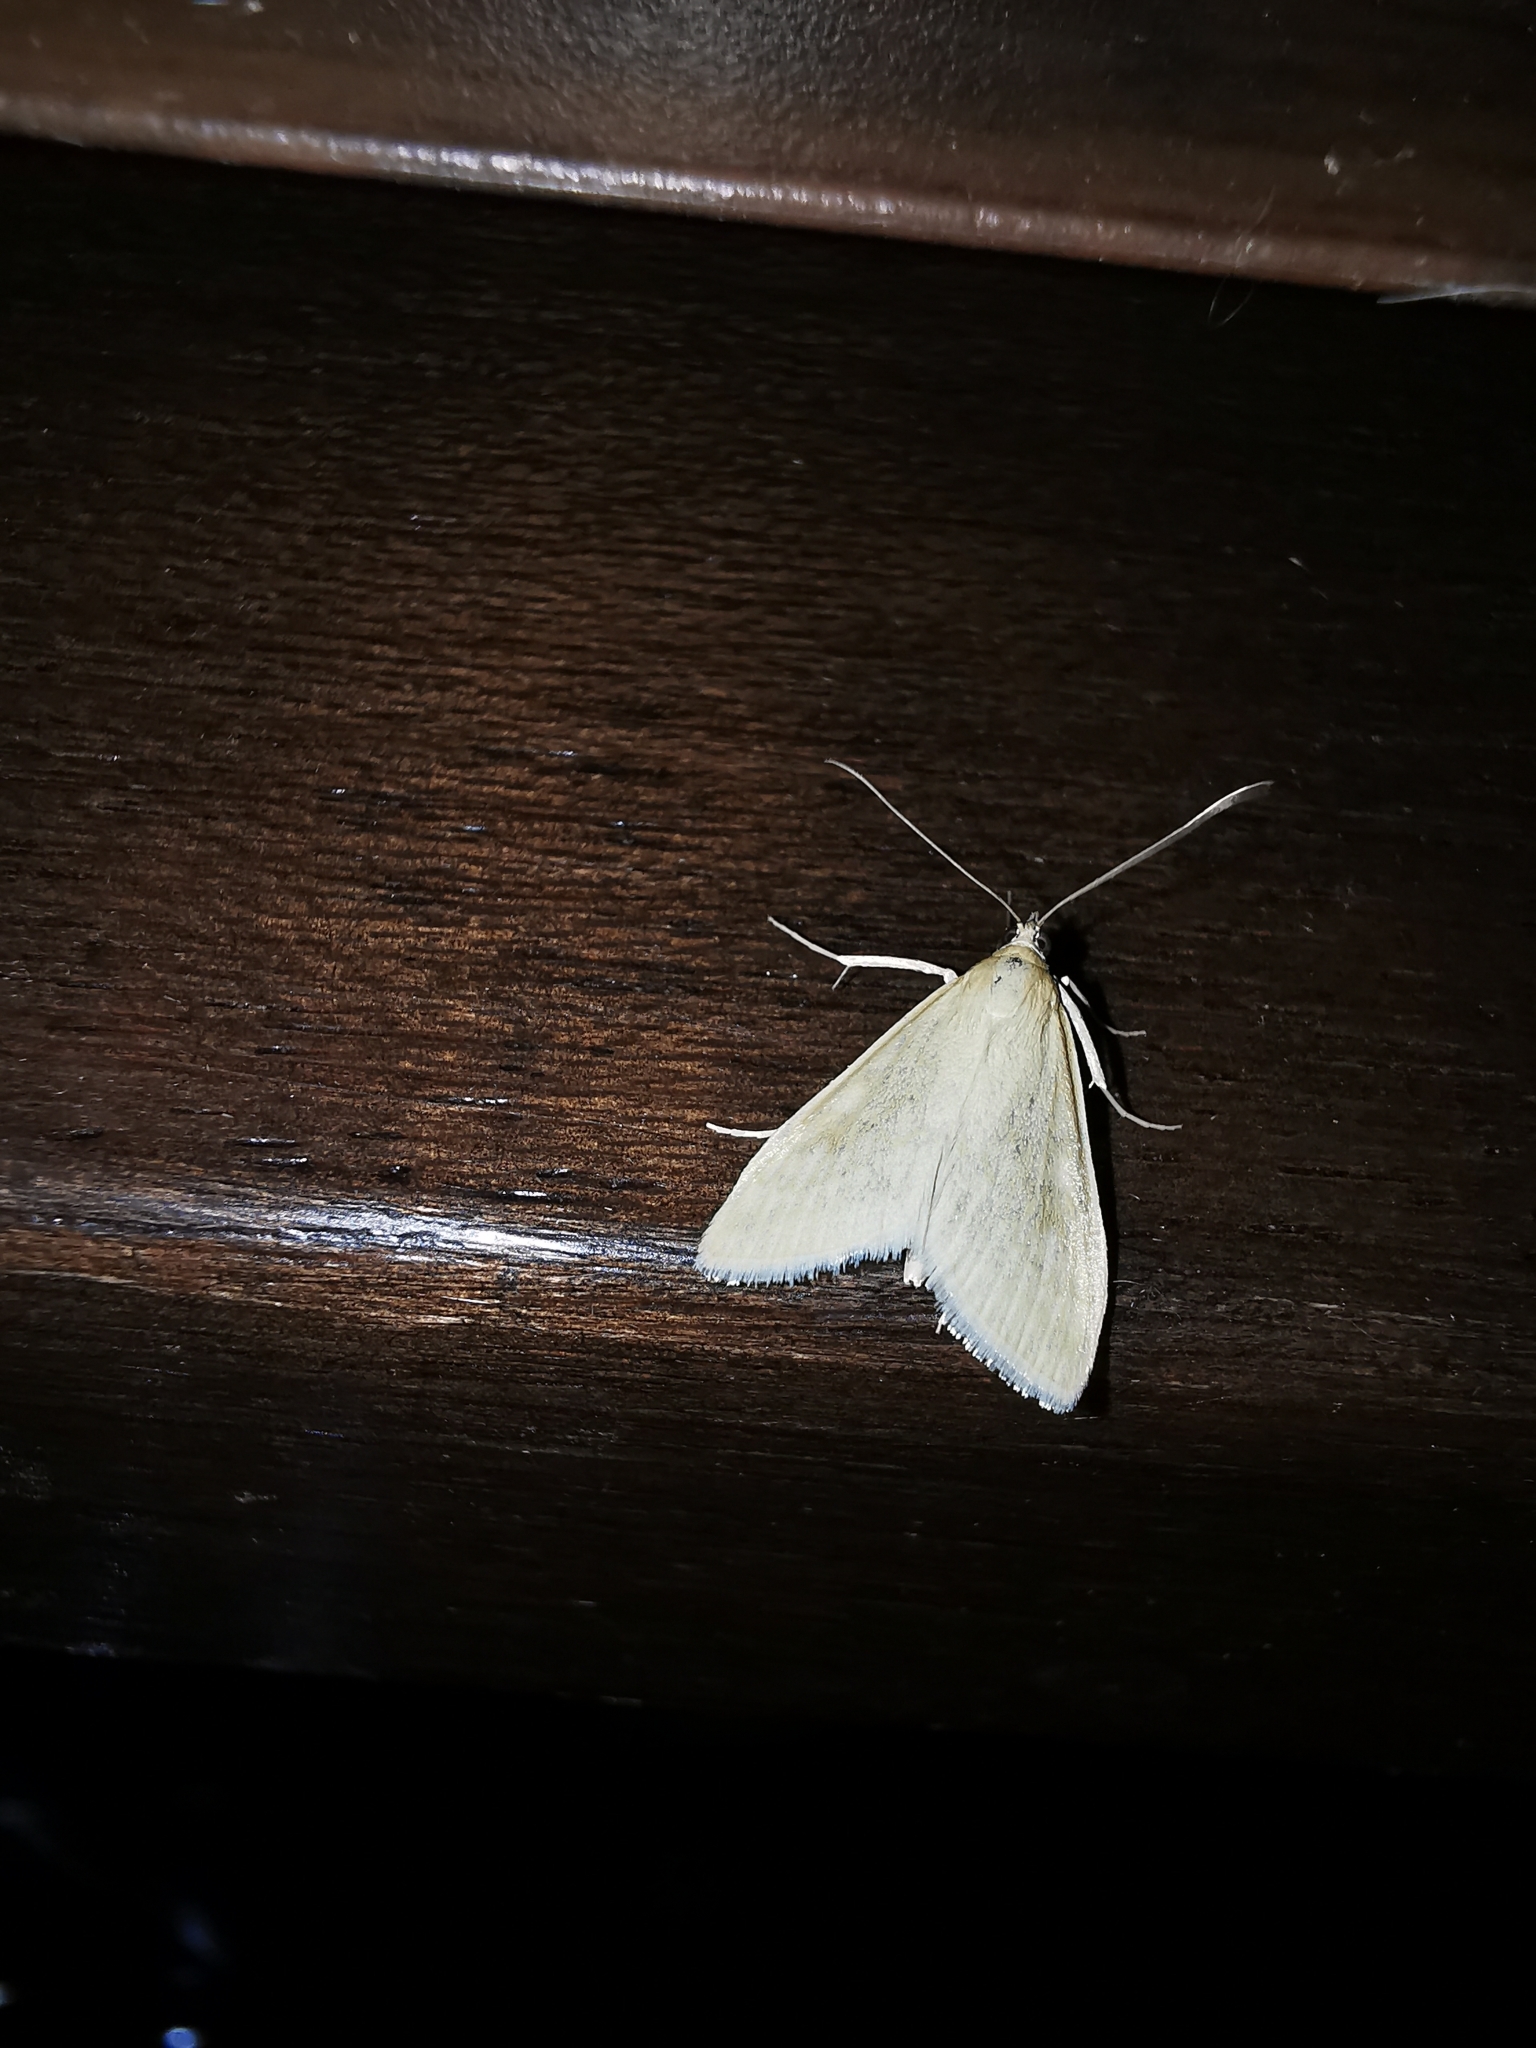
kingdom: Animalia
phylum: Arthropoda
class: Insecta
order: Lepidoptera
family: Crambidae
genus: Sitochroa
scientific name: Sitochroa palealis
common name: Greenish-yellow sitochroa moth
